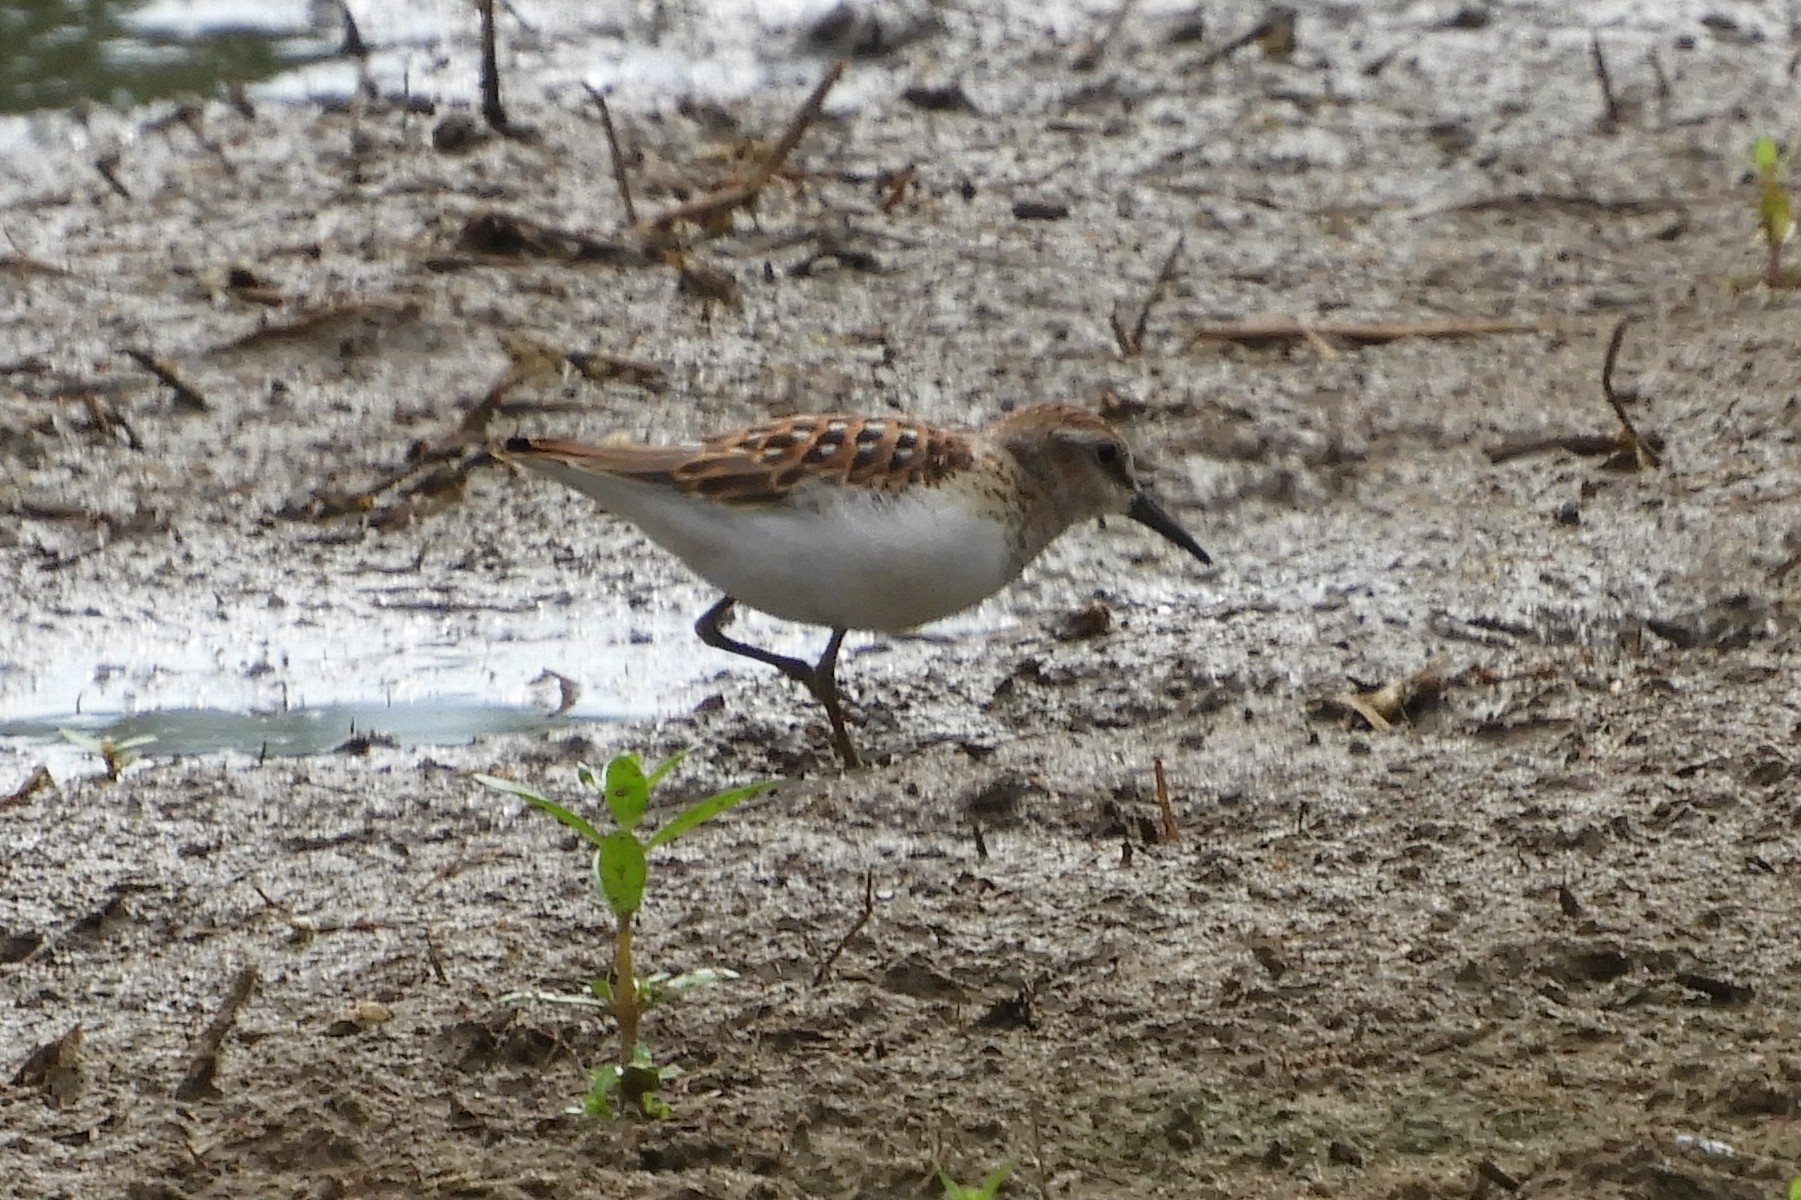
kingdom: Animalia
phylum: Chordata
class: Aves
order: Charadriiformes
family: Scolopacidae
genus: Calidris
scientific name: Calidris minutilla
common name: Least sandpiper
